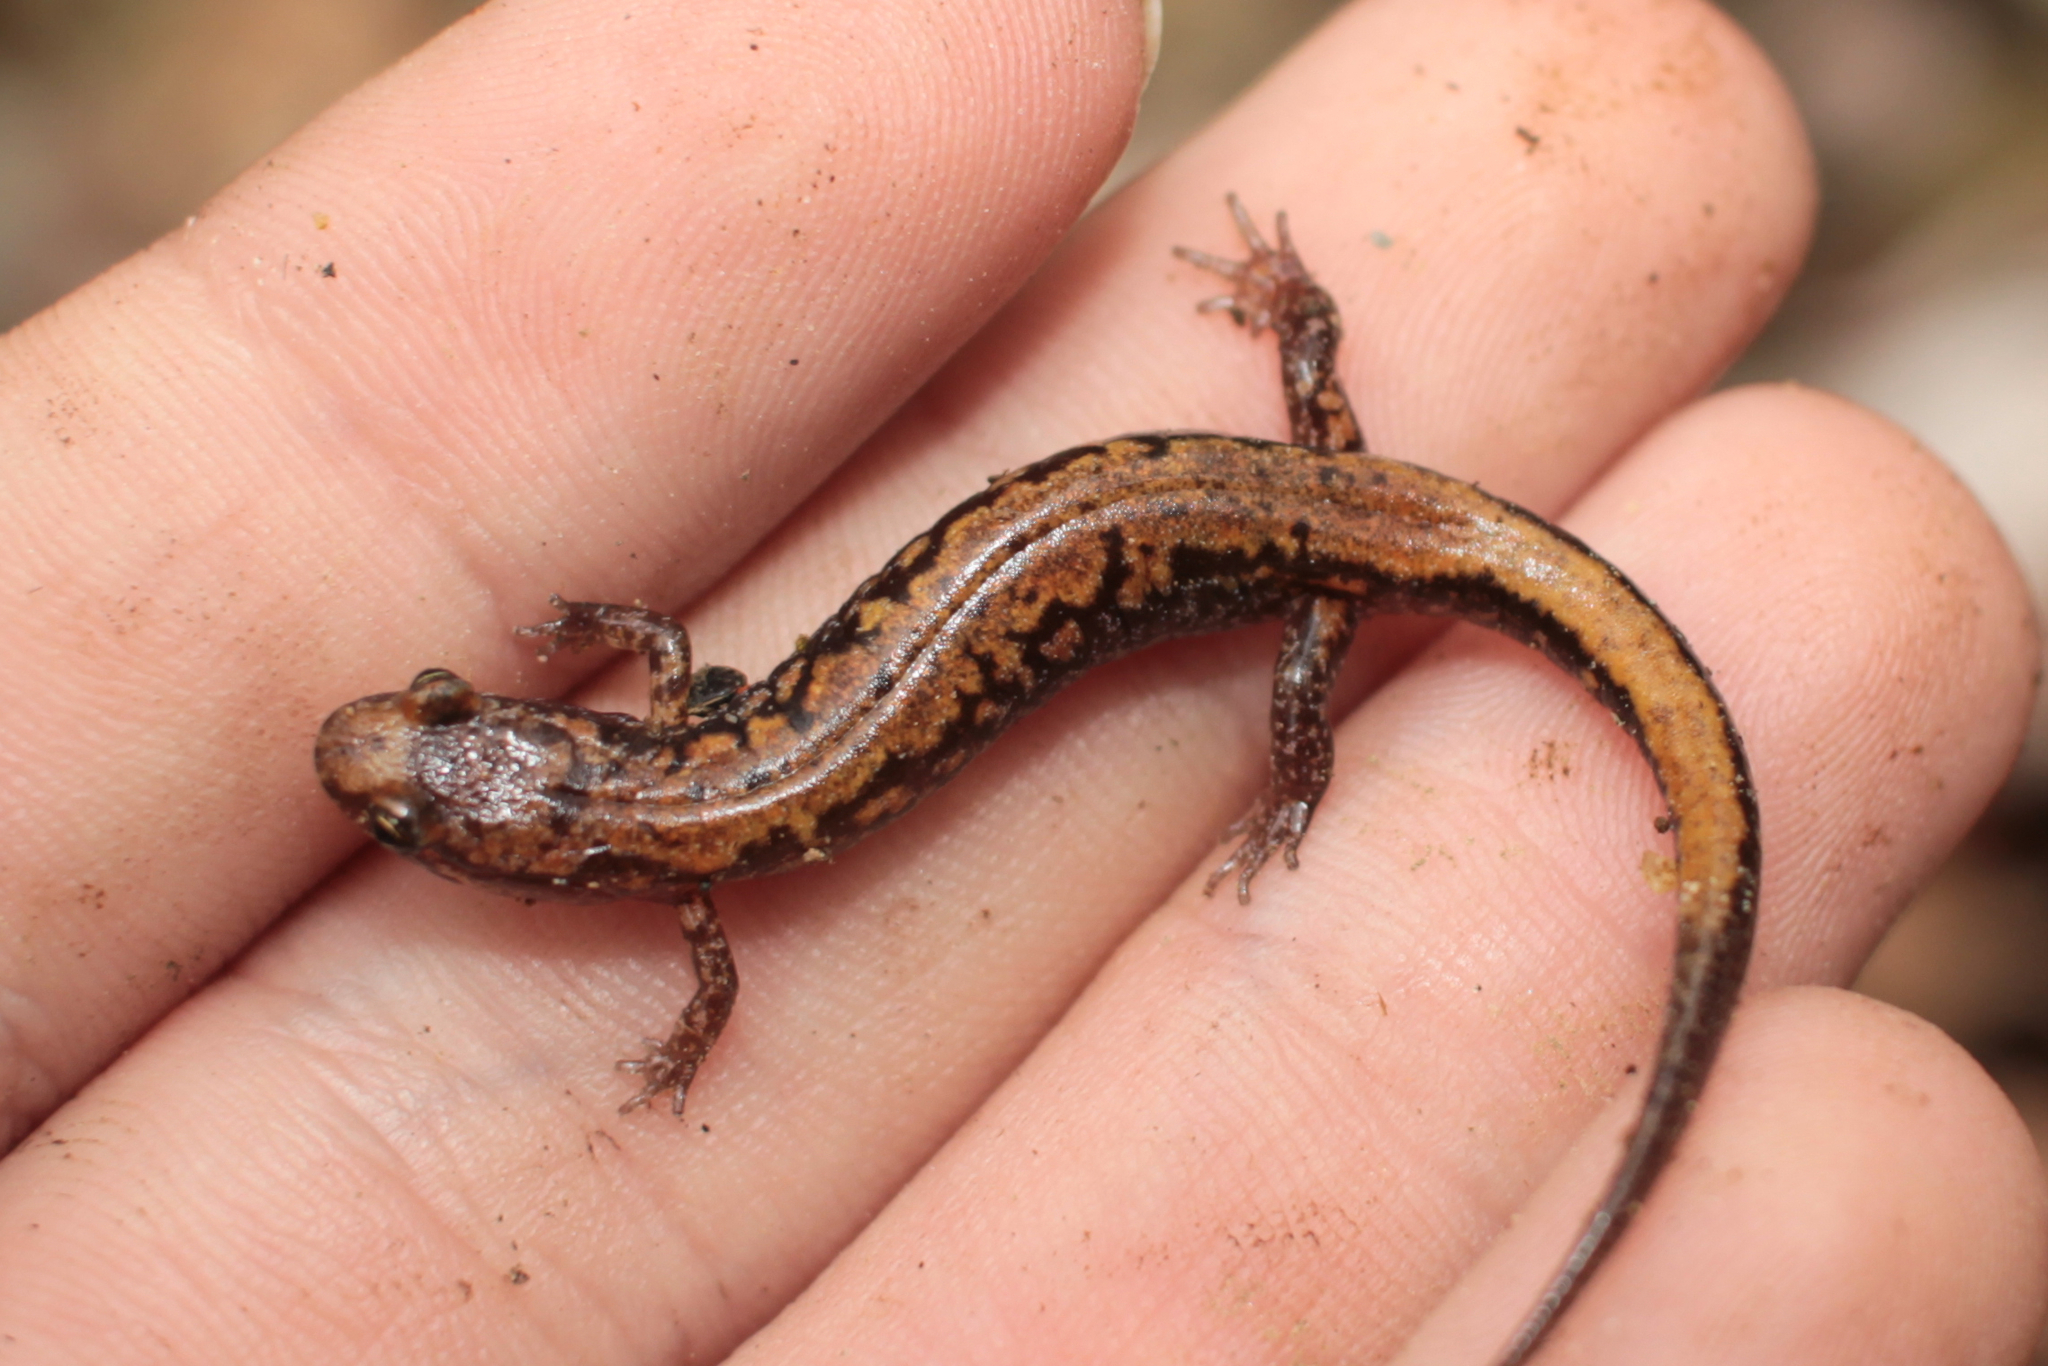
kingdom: Animalia
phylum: Chordata
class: Amphibia
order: Caudata
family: Plethodontidae
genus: Desmognathus
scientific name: Desmognathus orestes
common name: Blue ridge dusky salamander
